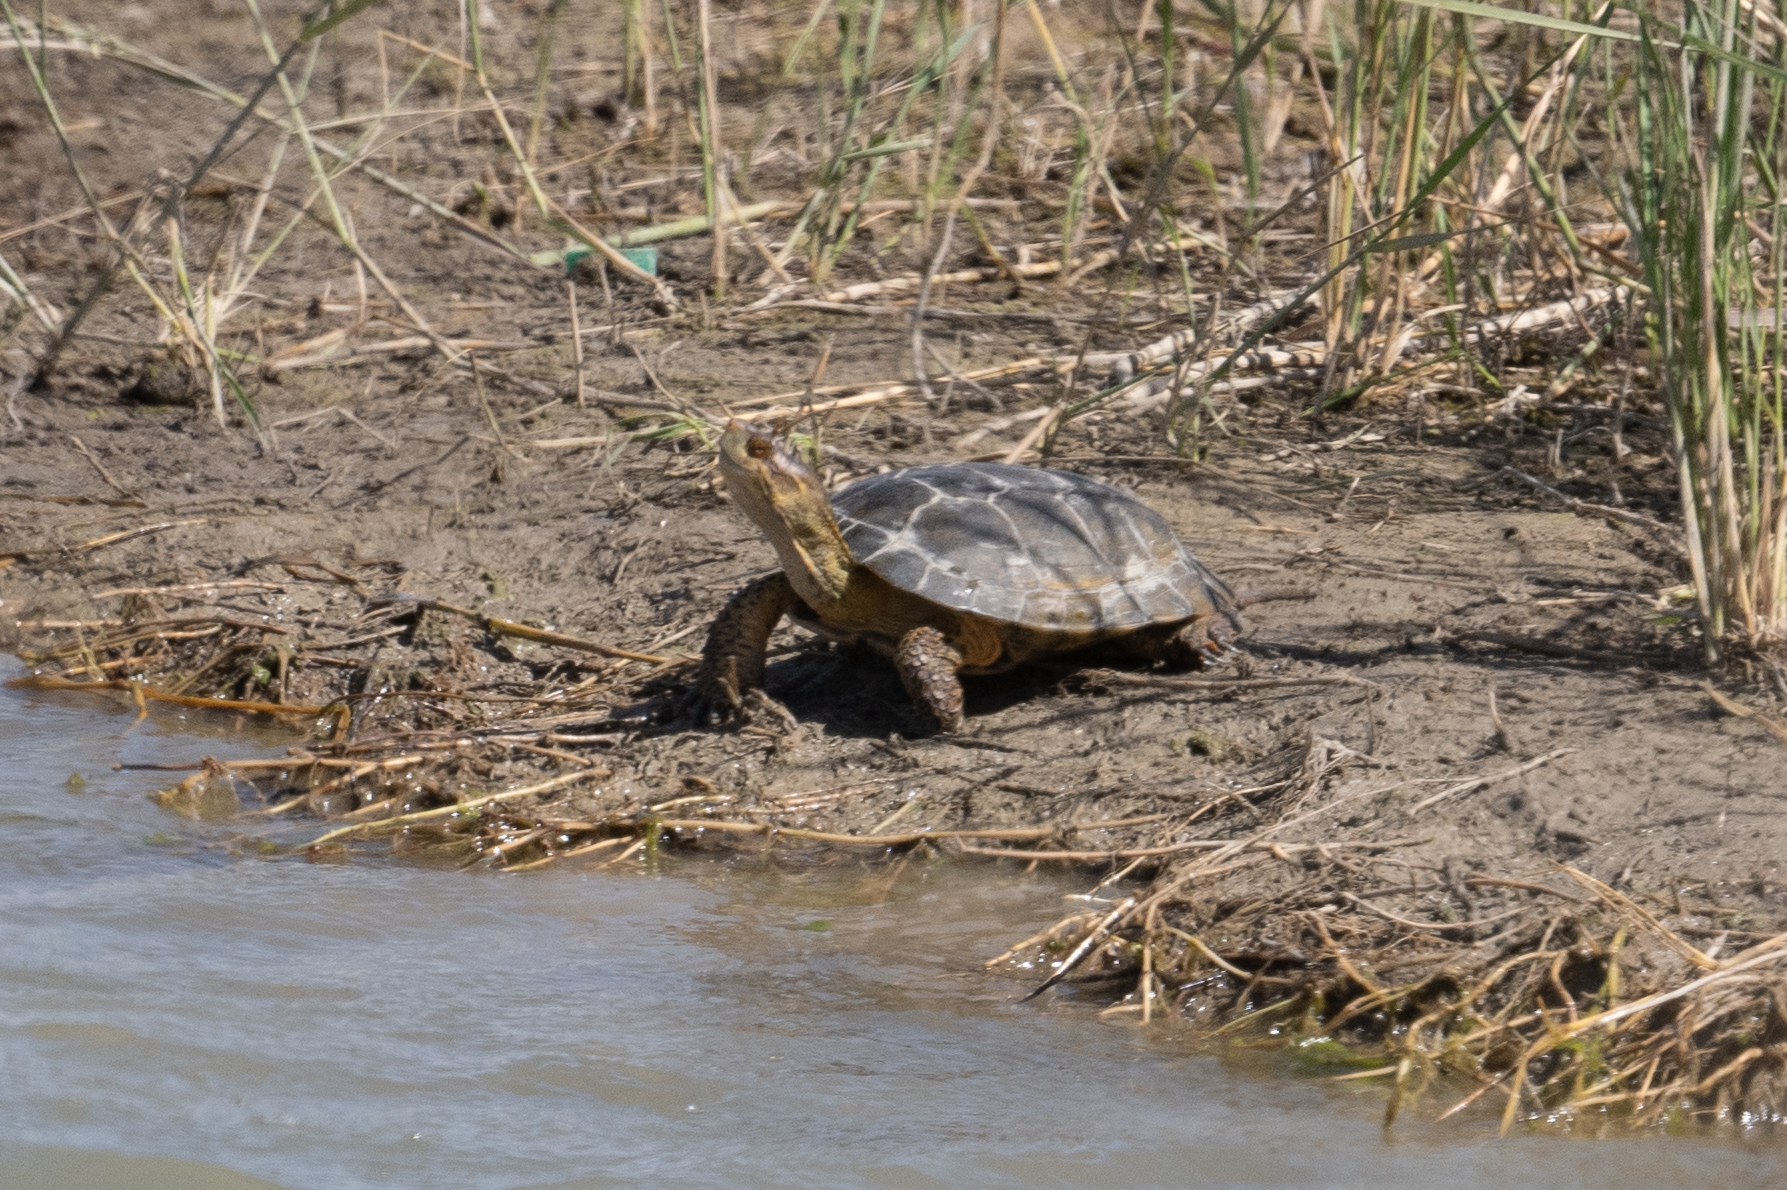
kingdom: Animalia
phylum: Chordata
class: Testudines
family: Emydidae
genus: Actinemys
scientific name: Actinemys marmorata
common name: Western pond turtle
